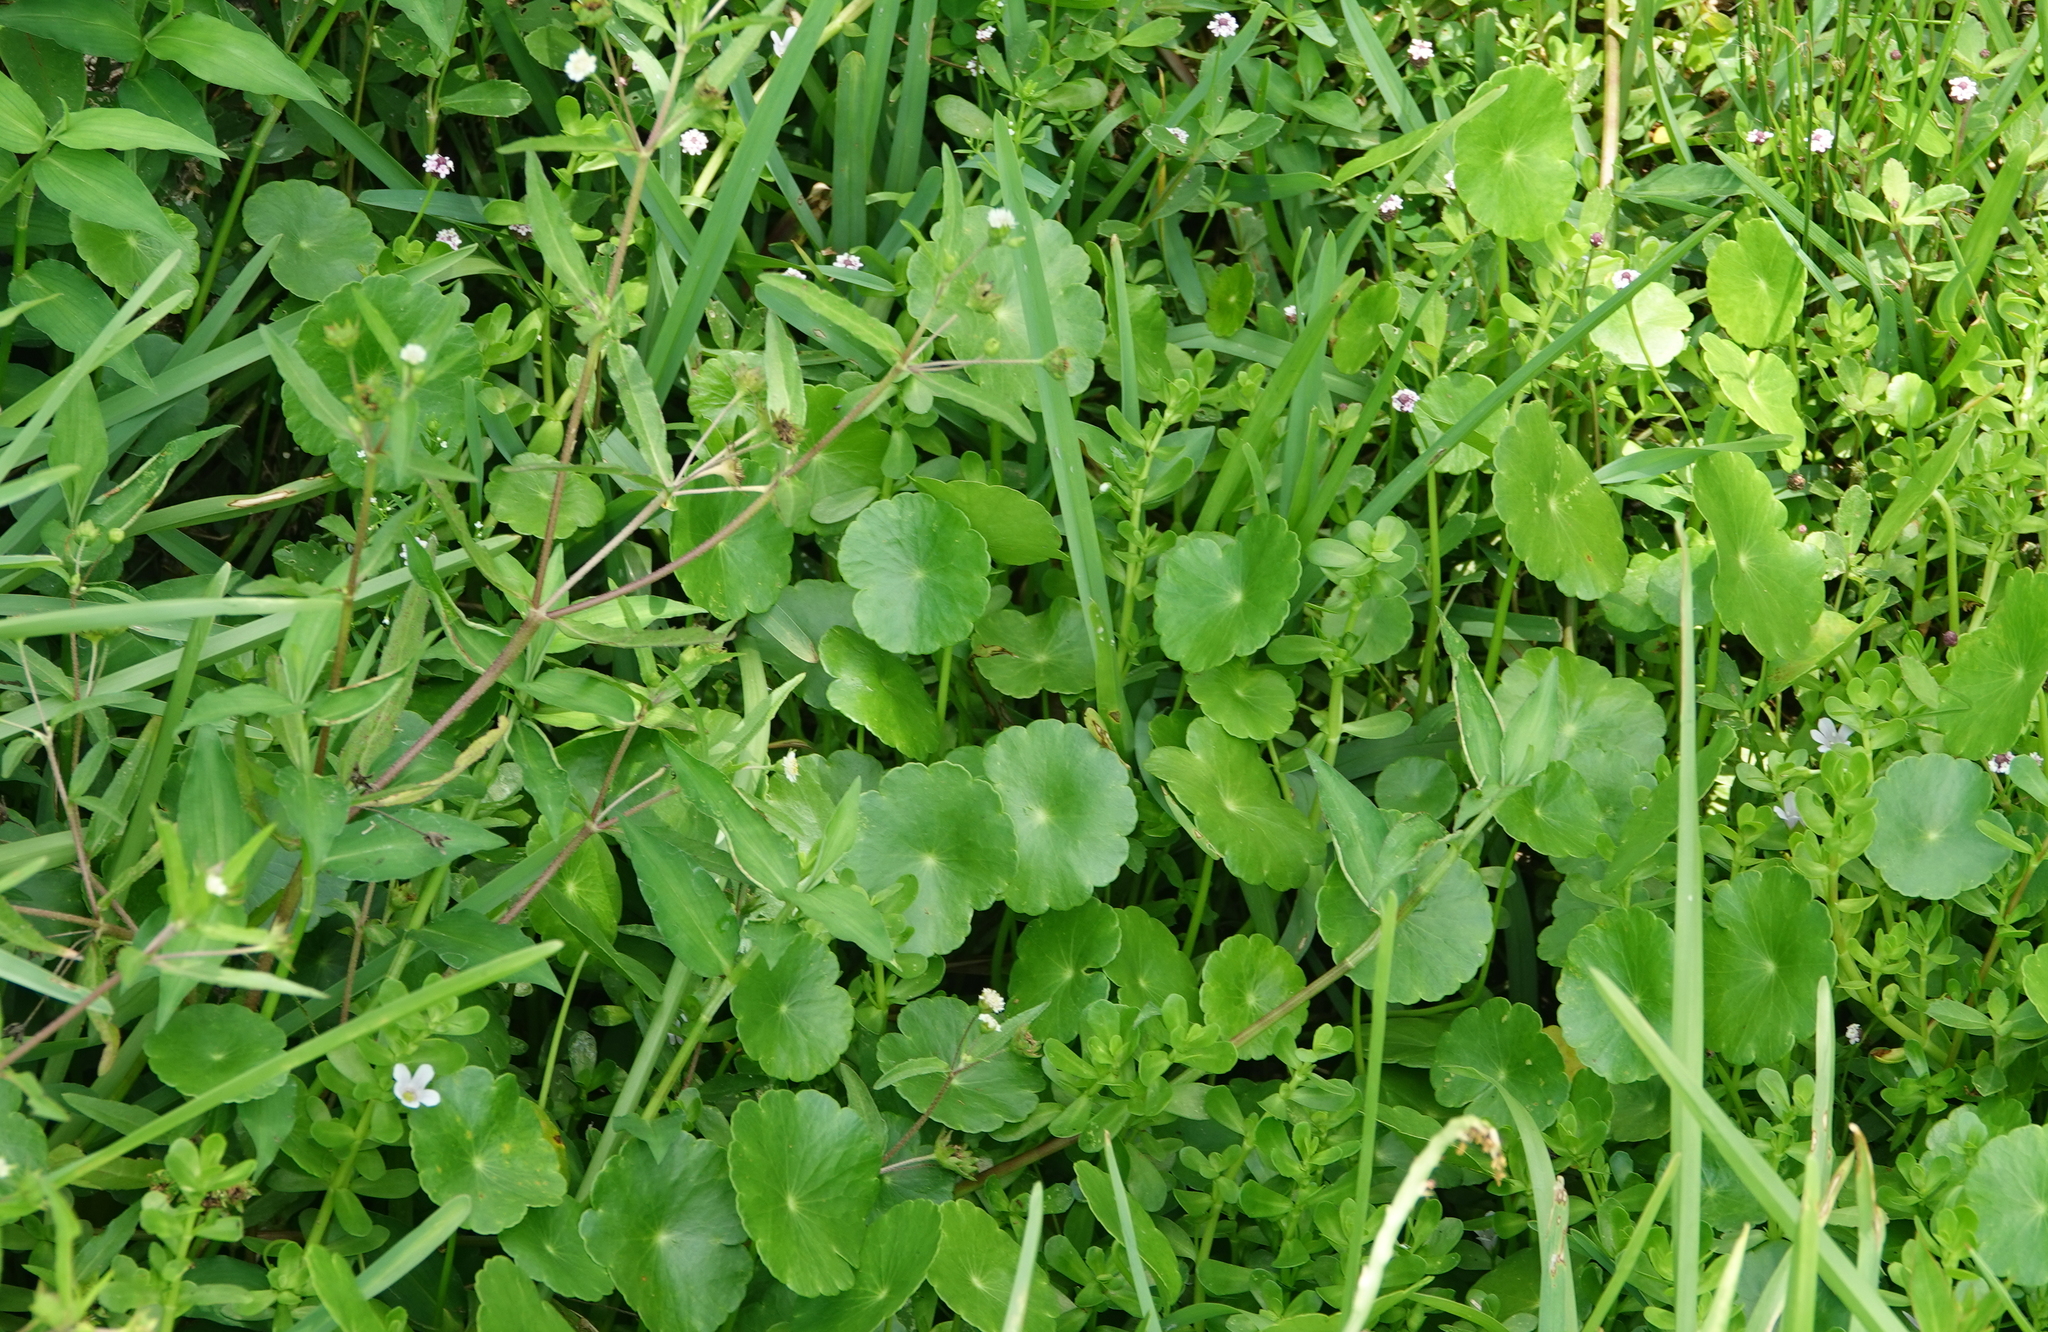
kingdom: Plantae
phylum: Tracheophyta
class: Magnoliopsida
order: Apiales
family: Araliaceae
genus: Hydrocotyle
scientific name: Hydrocotyle bonariensis
